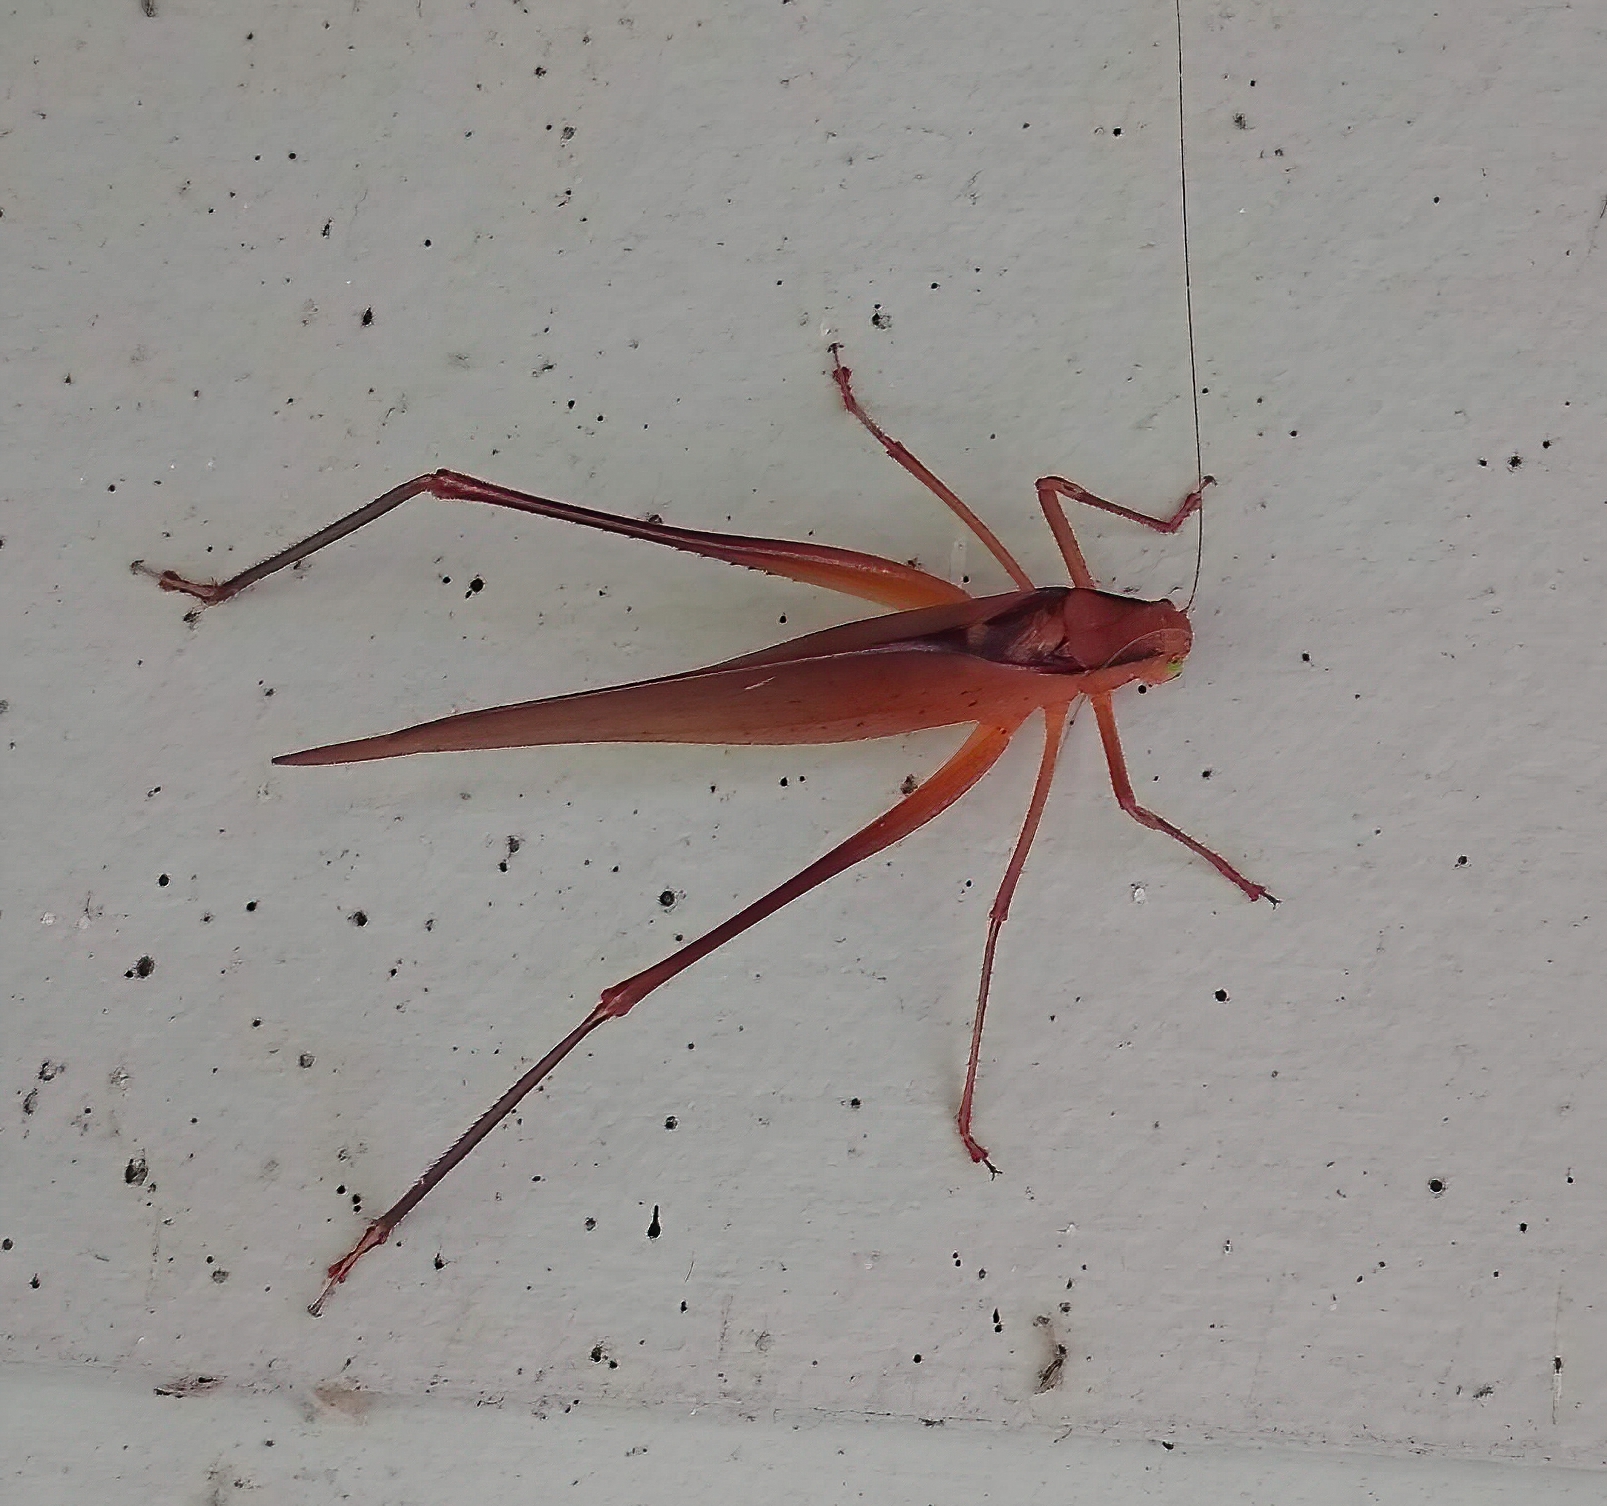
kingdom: Animalia
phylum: Arthropoda
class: Insecta
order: Orthoptera
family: Tettigoniidae
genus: Amblycorypha
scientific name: Amblycorypha carinata
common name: Carinate katydid
